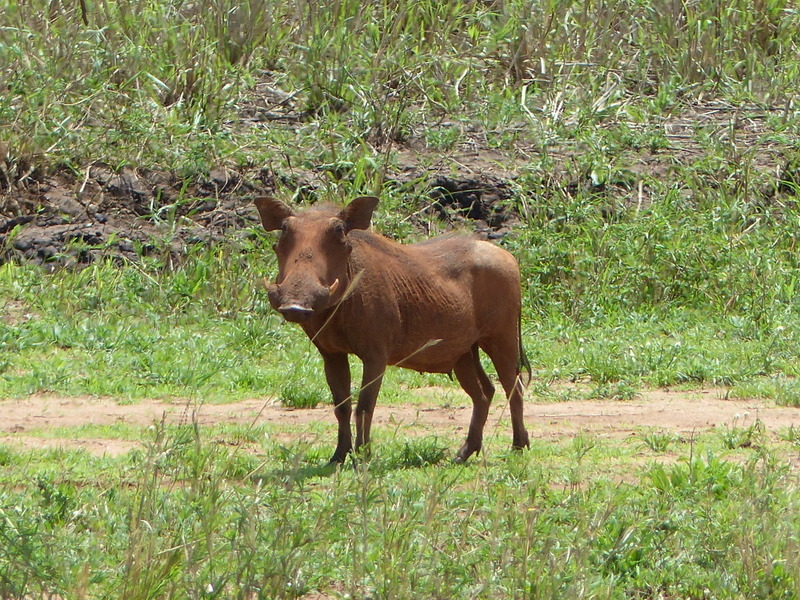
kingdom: Animalia
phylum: Chordata
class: Mammalia
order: Artiodactyla
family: Suidae
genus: Phacochoerus
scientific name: Phacochoerus africanus
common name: Common warthog
